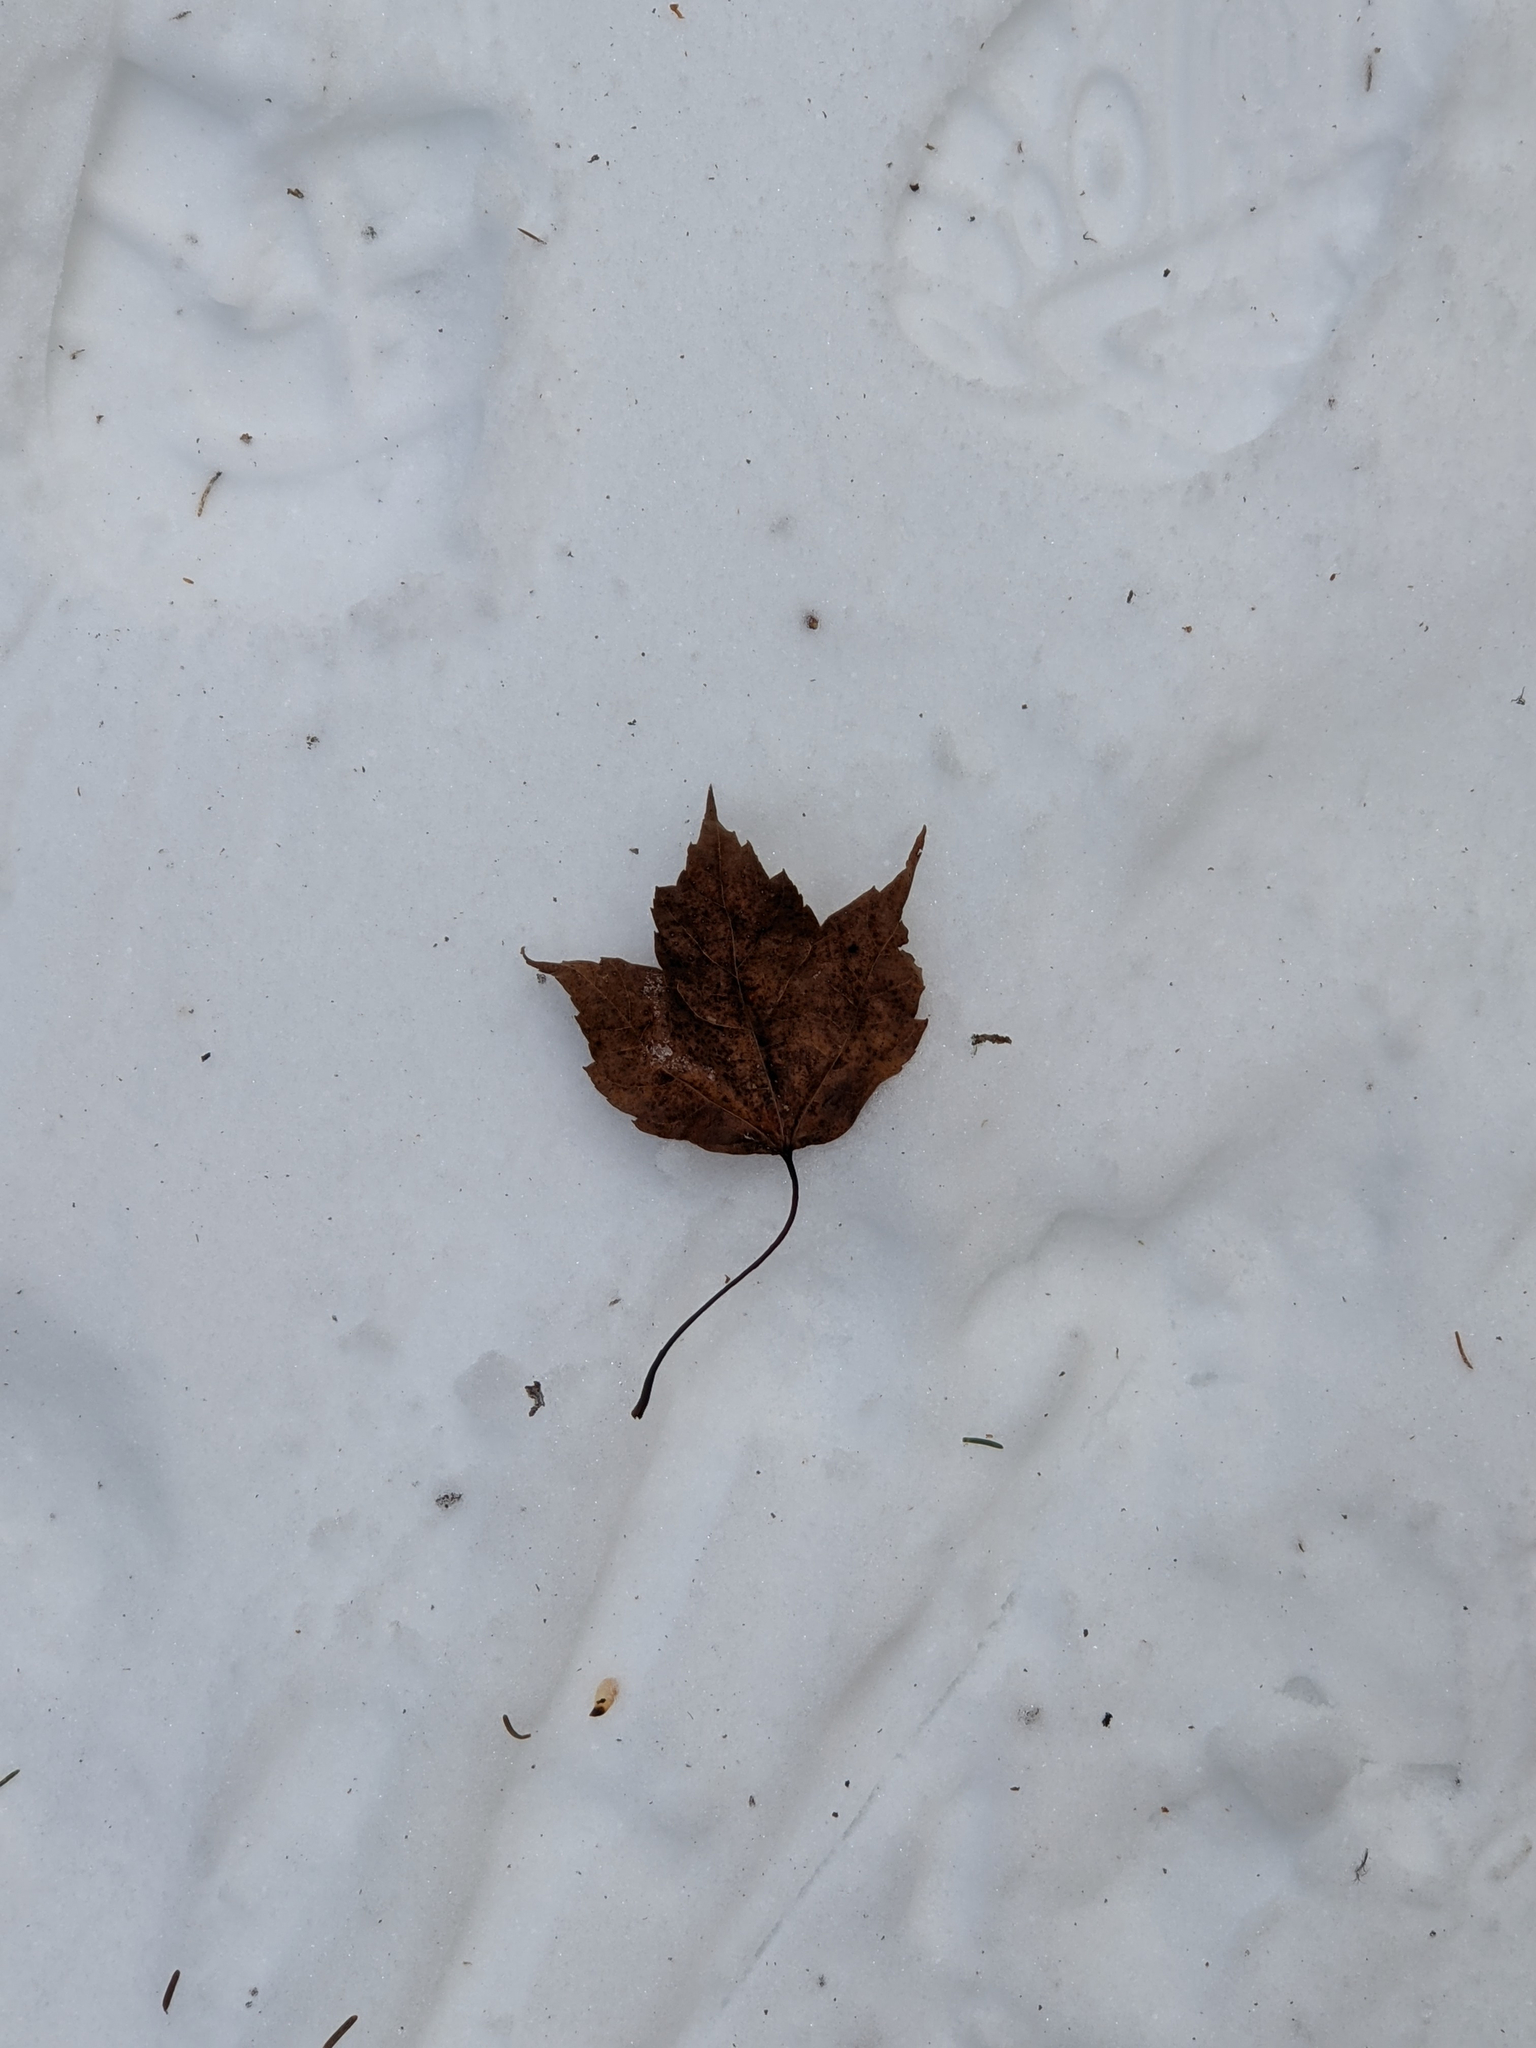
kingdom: Plantae
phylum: Tracheophyta
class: Magnoliopsida
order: Sapindales
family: Sapindaceae
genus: Acer
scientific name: Acer rubrum
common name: Red maple
